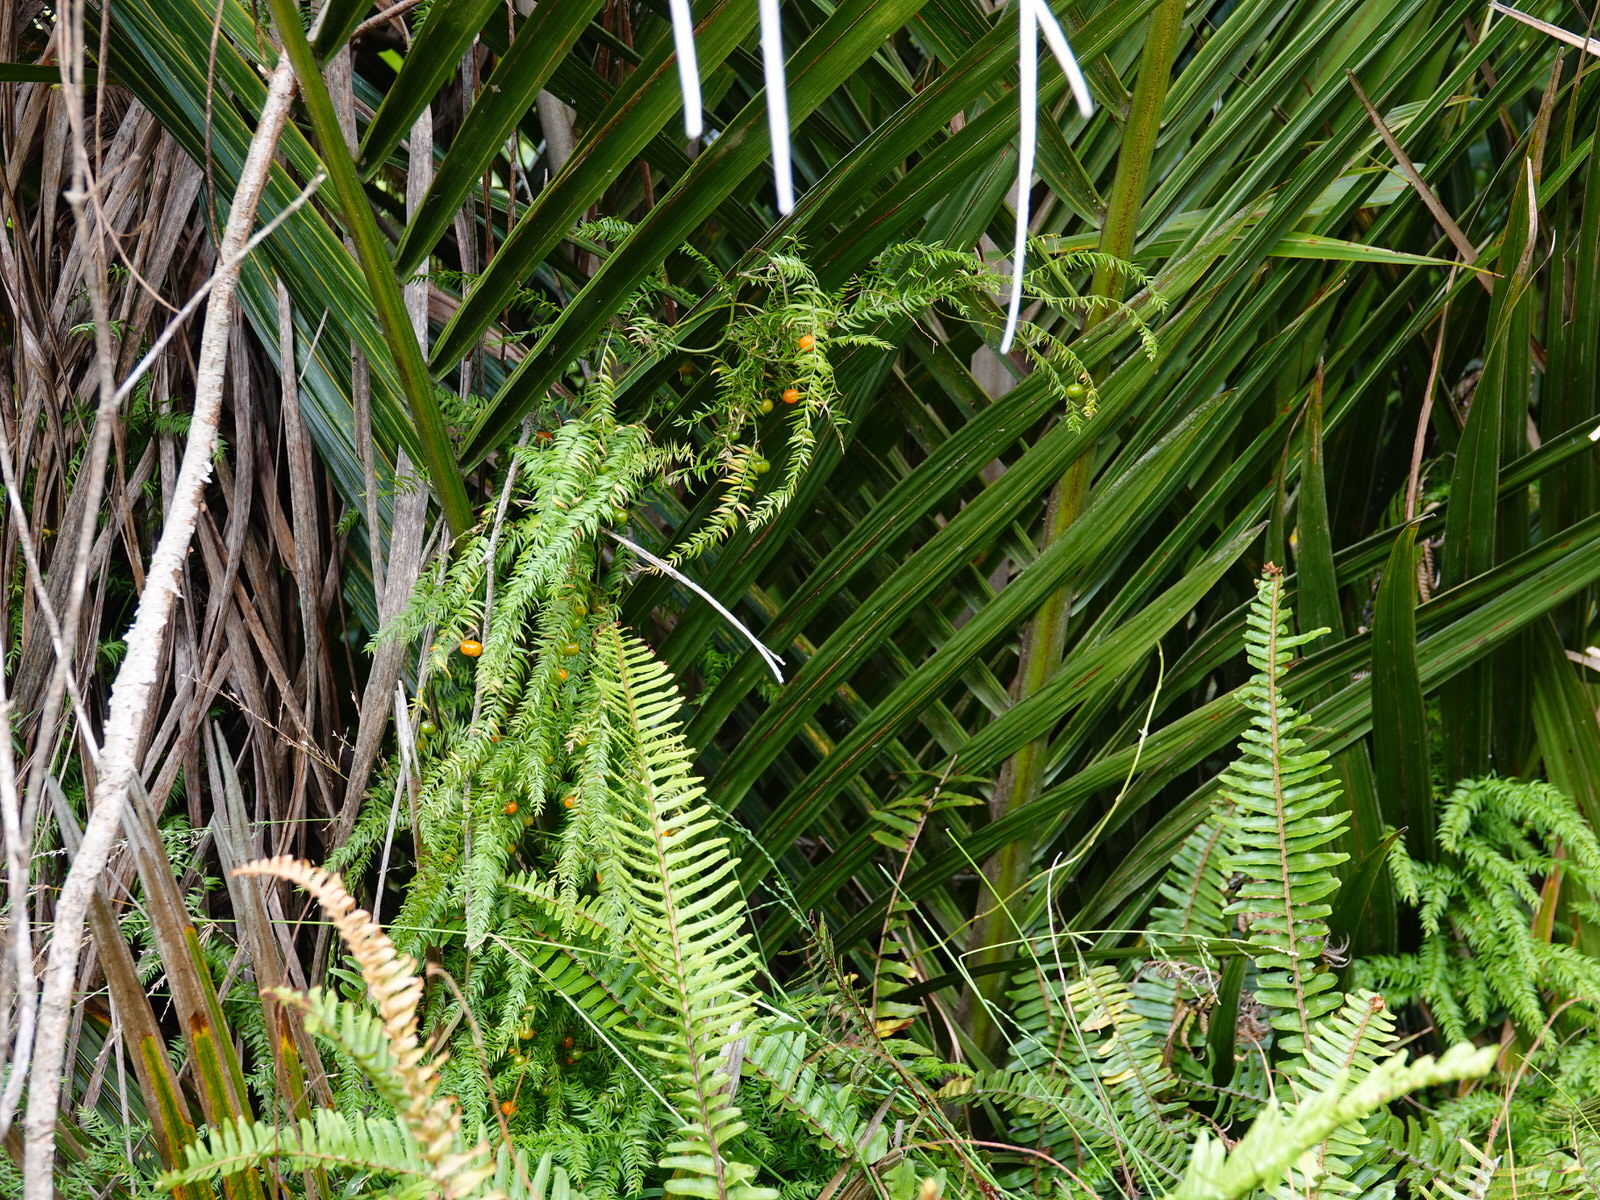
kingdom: Plantae
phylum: Tracheophyta
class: Liliopsida
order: Asparagales
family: Asparagaceae
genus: Asparagus
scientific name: Asparagus scandens
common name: Asparagus-fern
